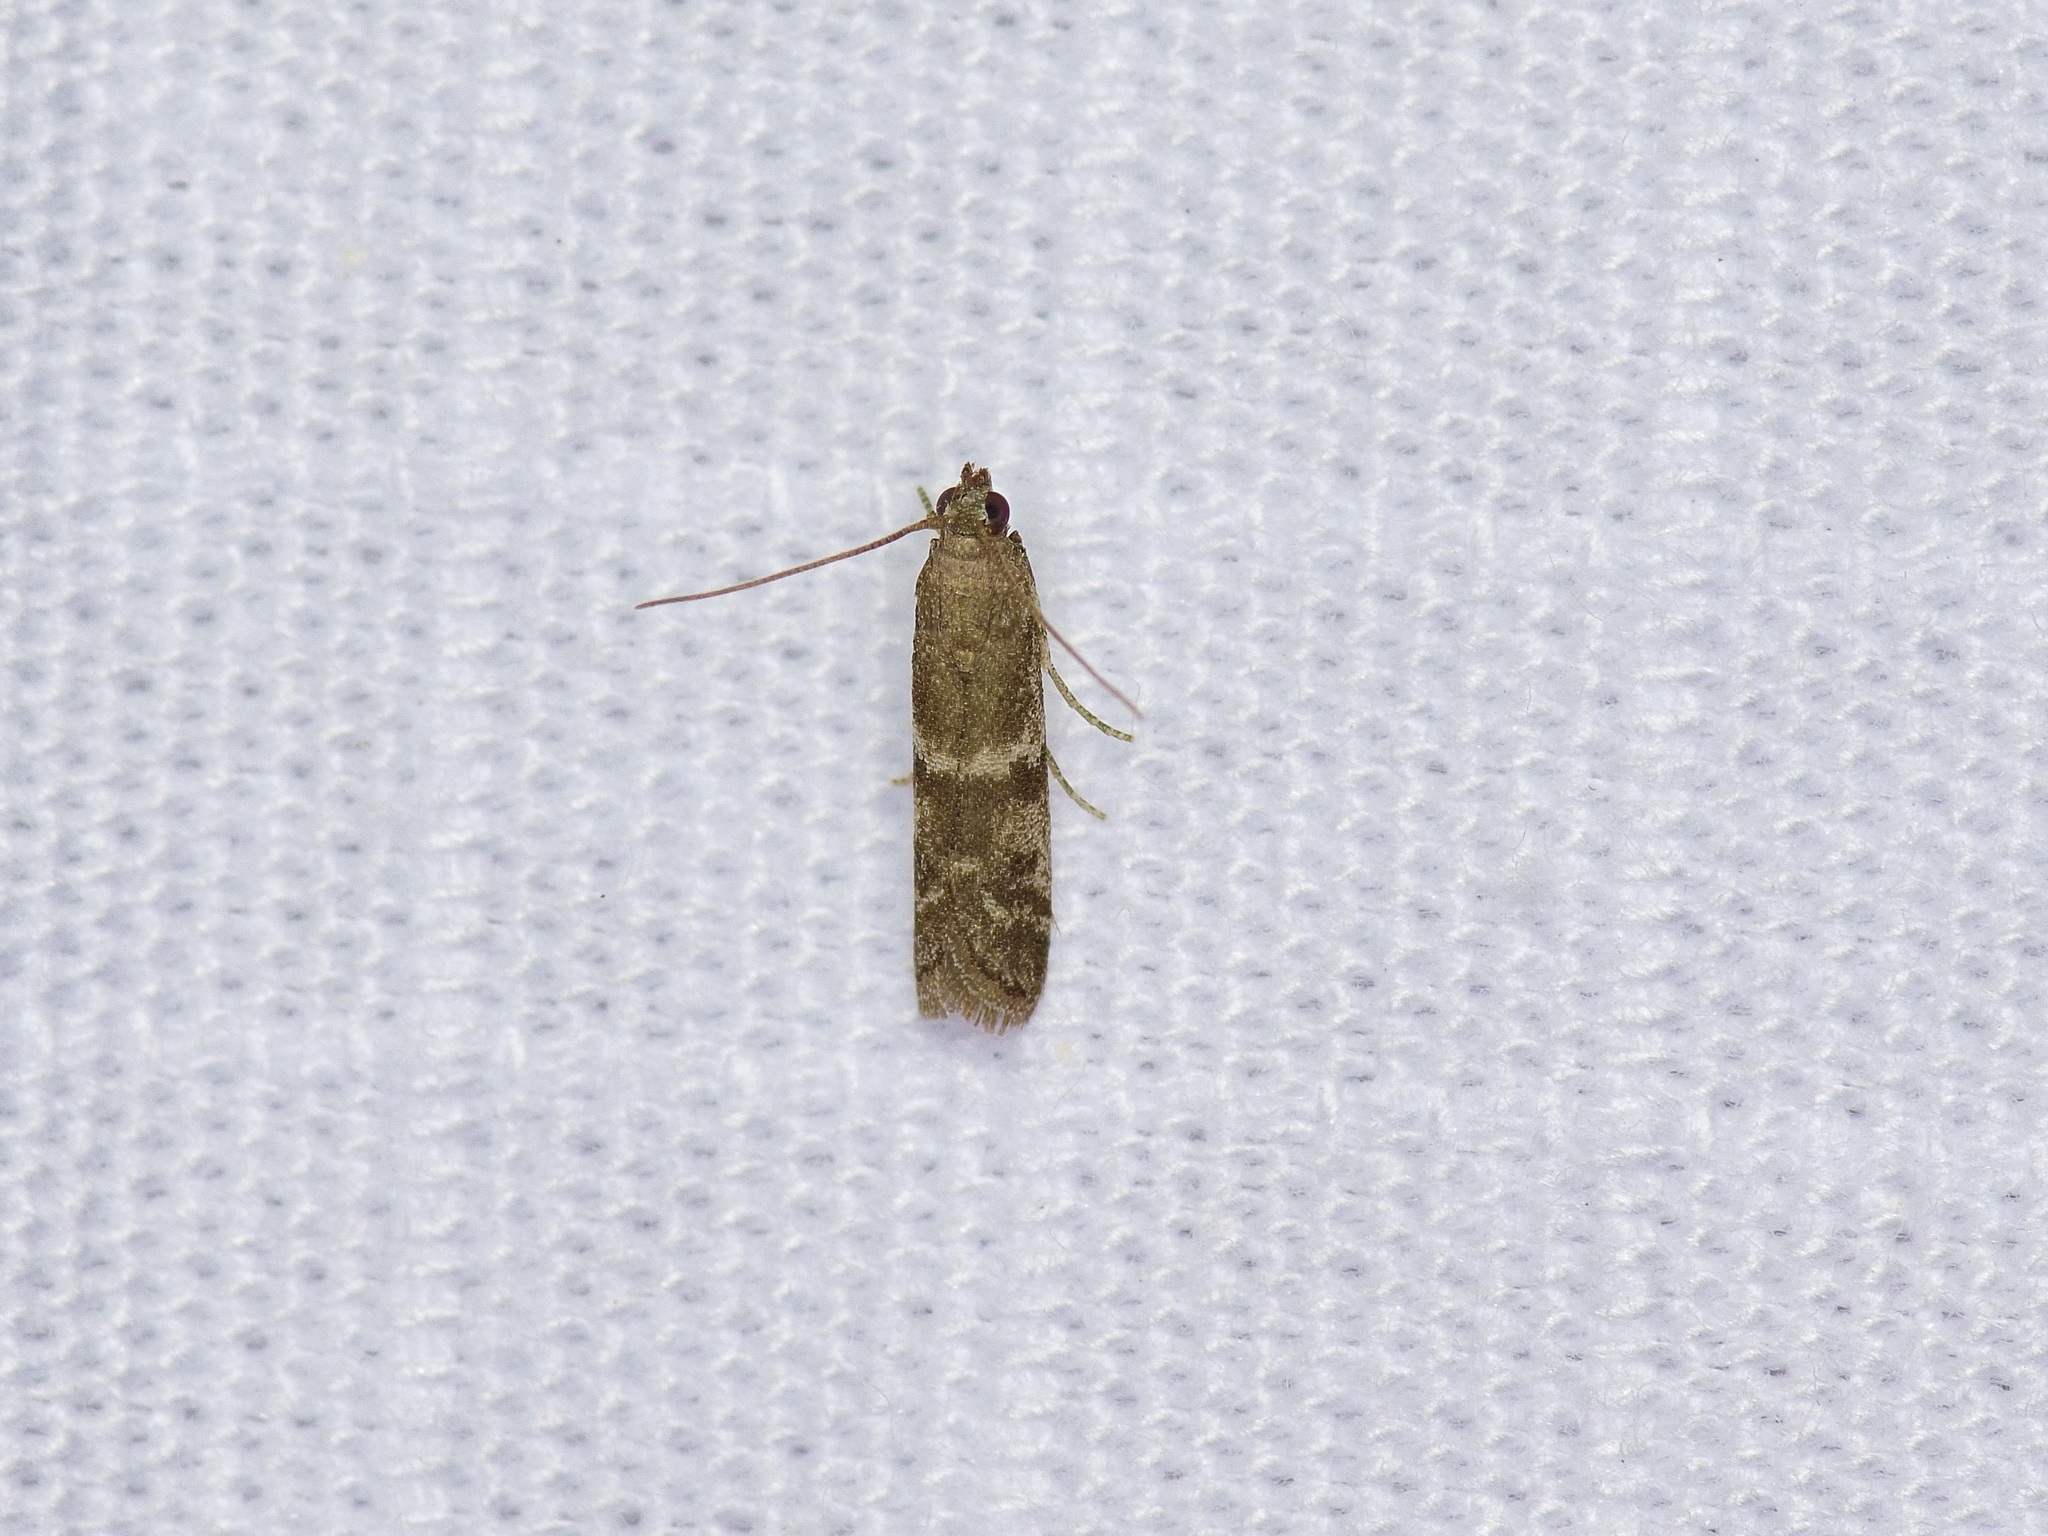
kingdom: Animalia
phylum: Arthropoda
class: Insecta
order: Lepidoptera
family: Pyralidae
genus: Ephestiodes
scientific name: Ephestiodes gilvescentella
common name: Moth
